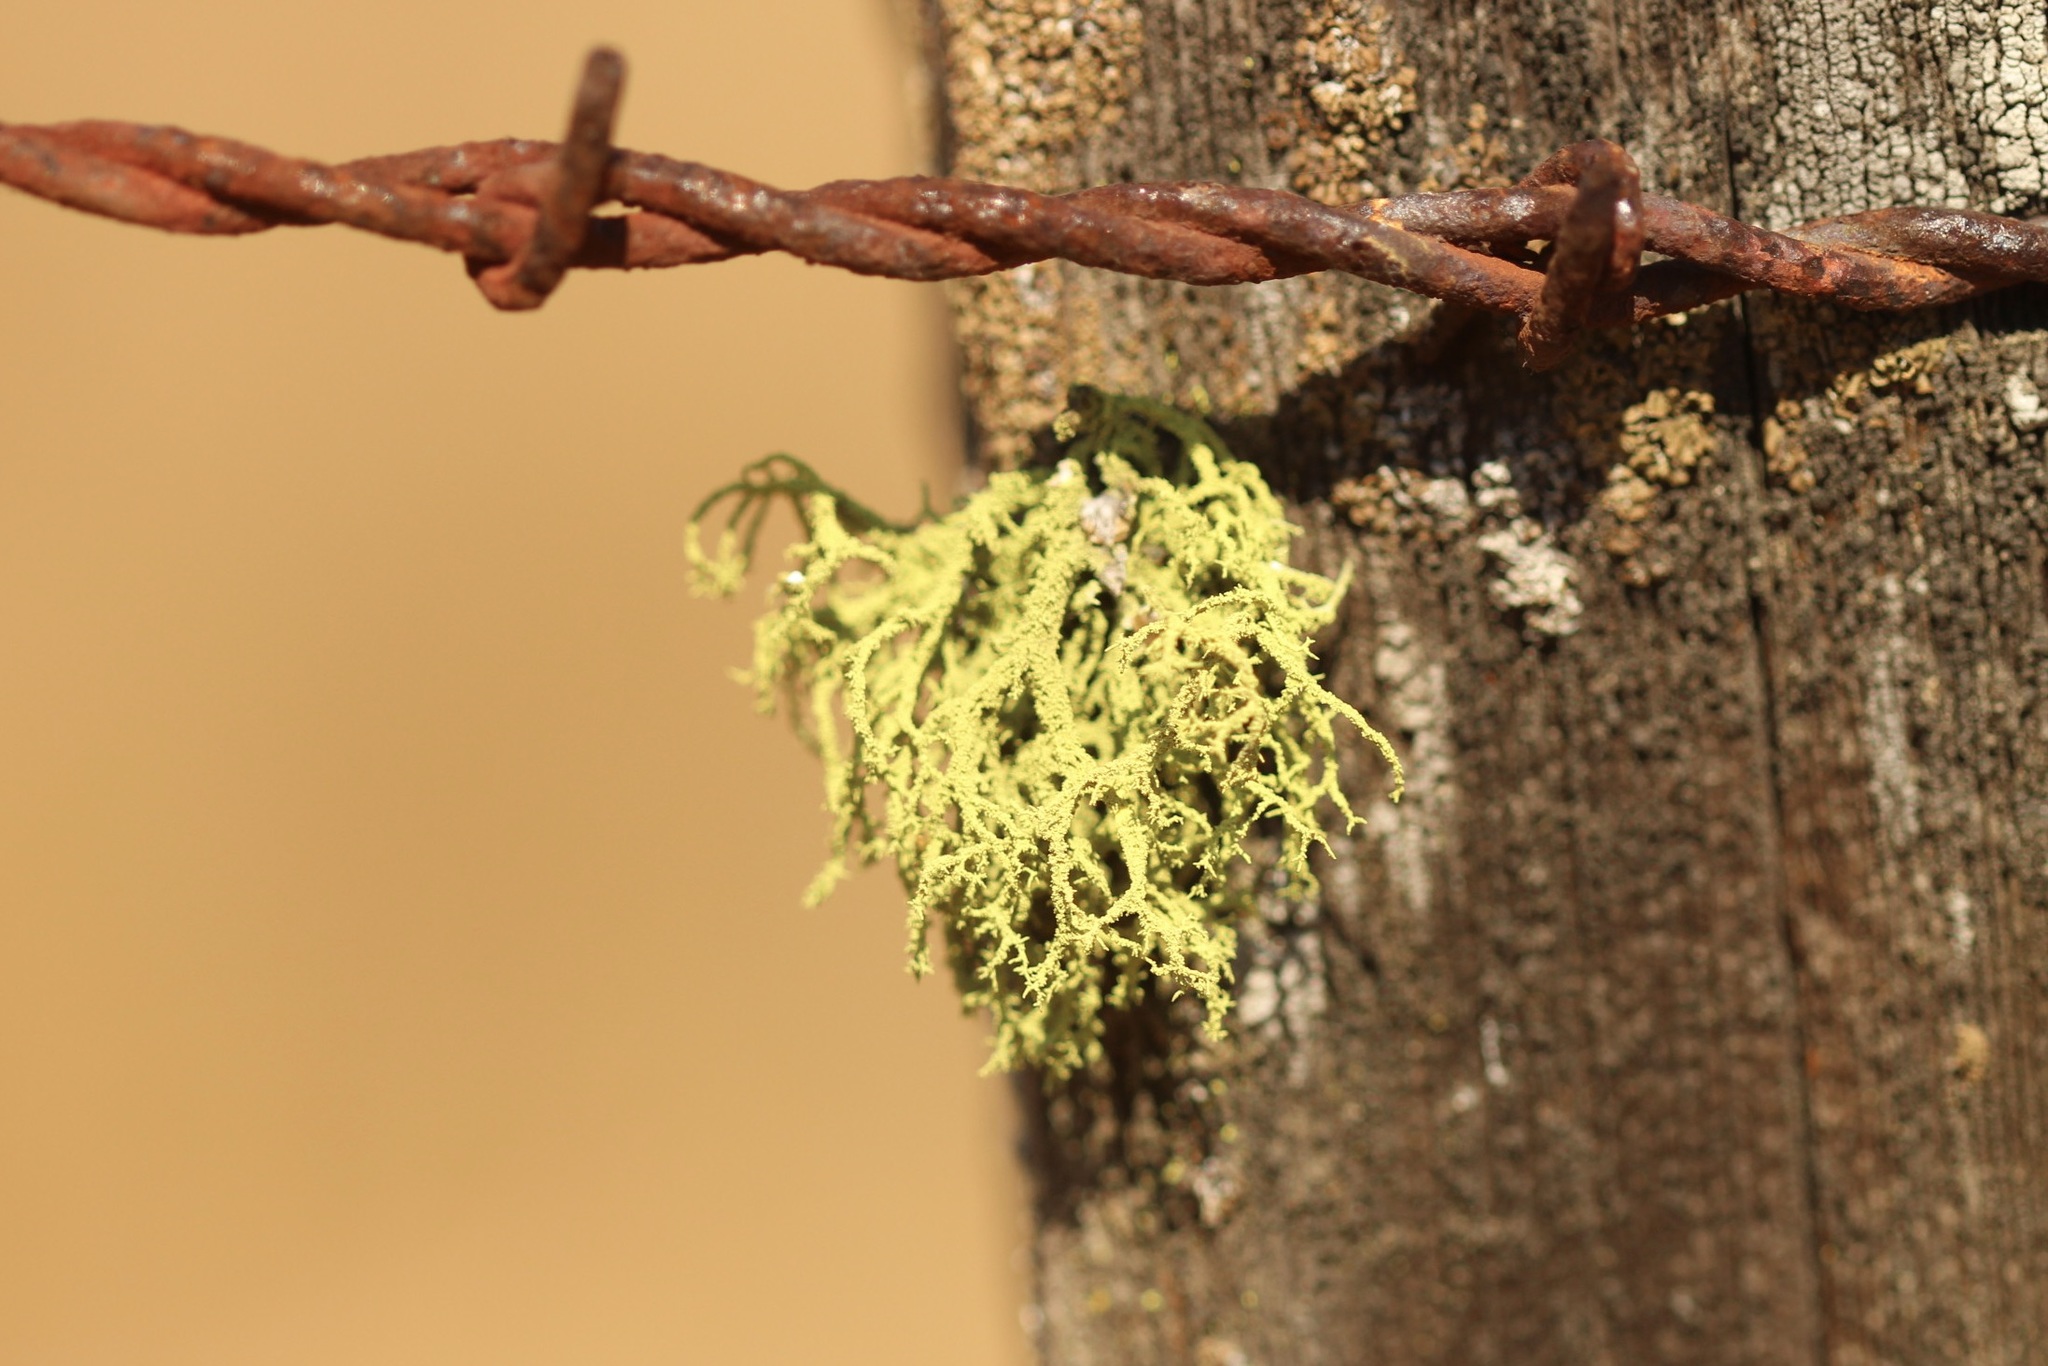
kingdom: Fungi
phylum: Ascomycota
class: Lecanoromycetes
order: Lecanorales
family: Parmeliaceae
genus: Letharia
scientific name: Letharia vulpina
